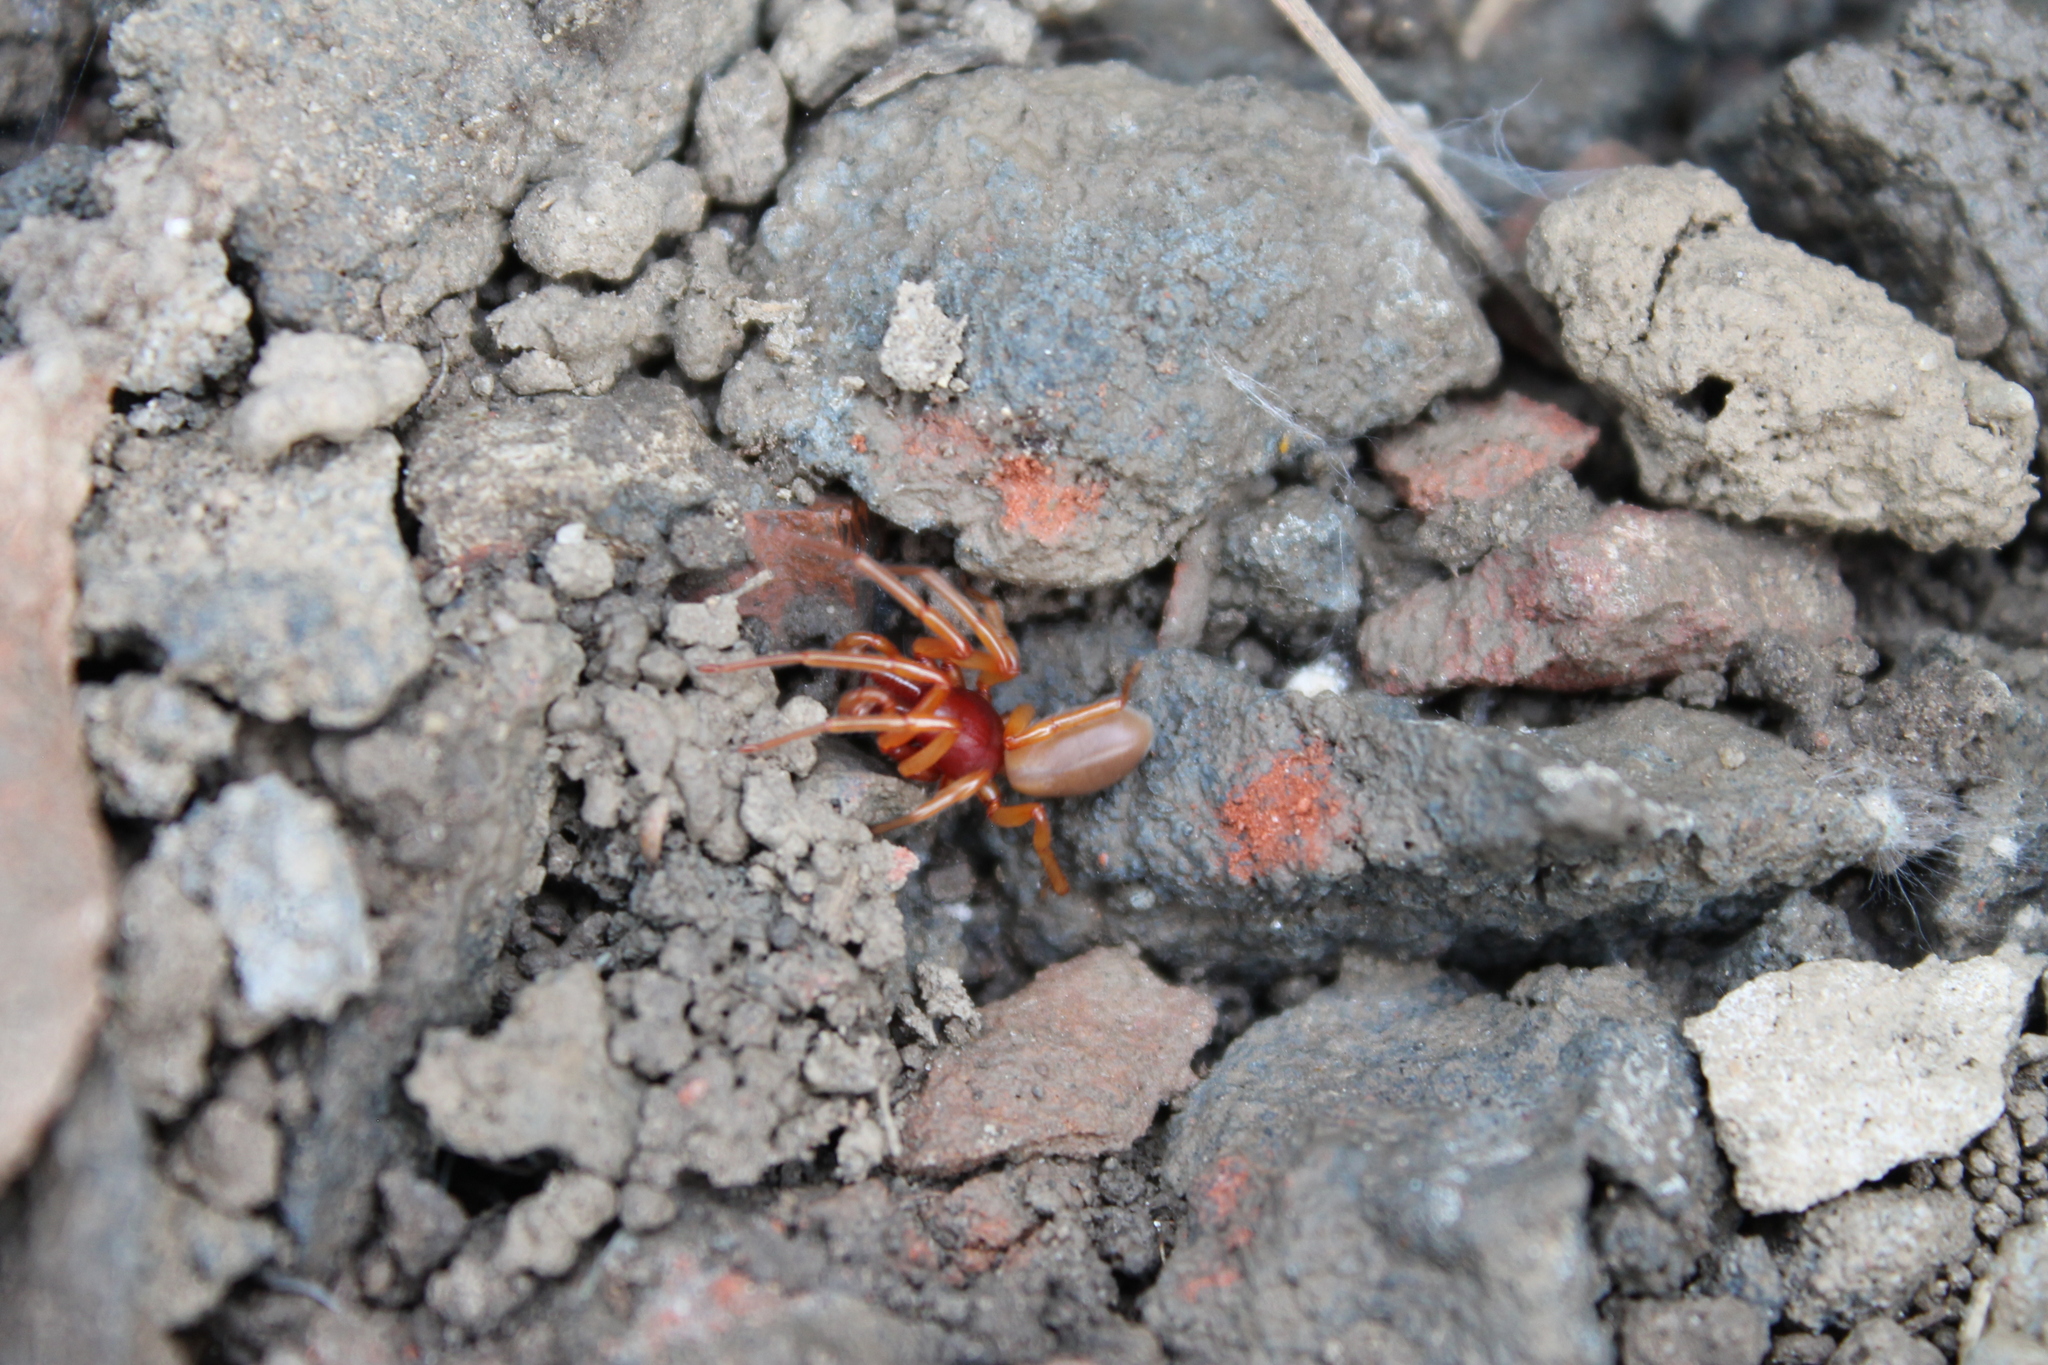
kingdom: Animalia
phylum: Arthropoda
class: Arachnida
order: Araneae
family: Dysderidae
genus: Dysdera
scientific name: Dysdera crocata
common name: Woodlouse spider
